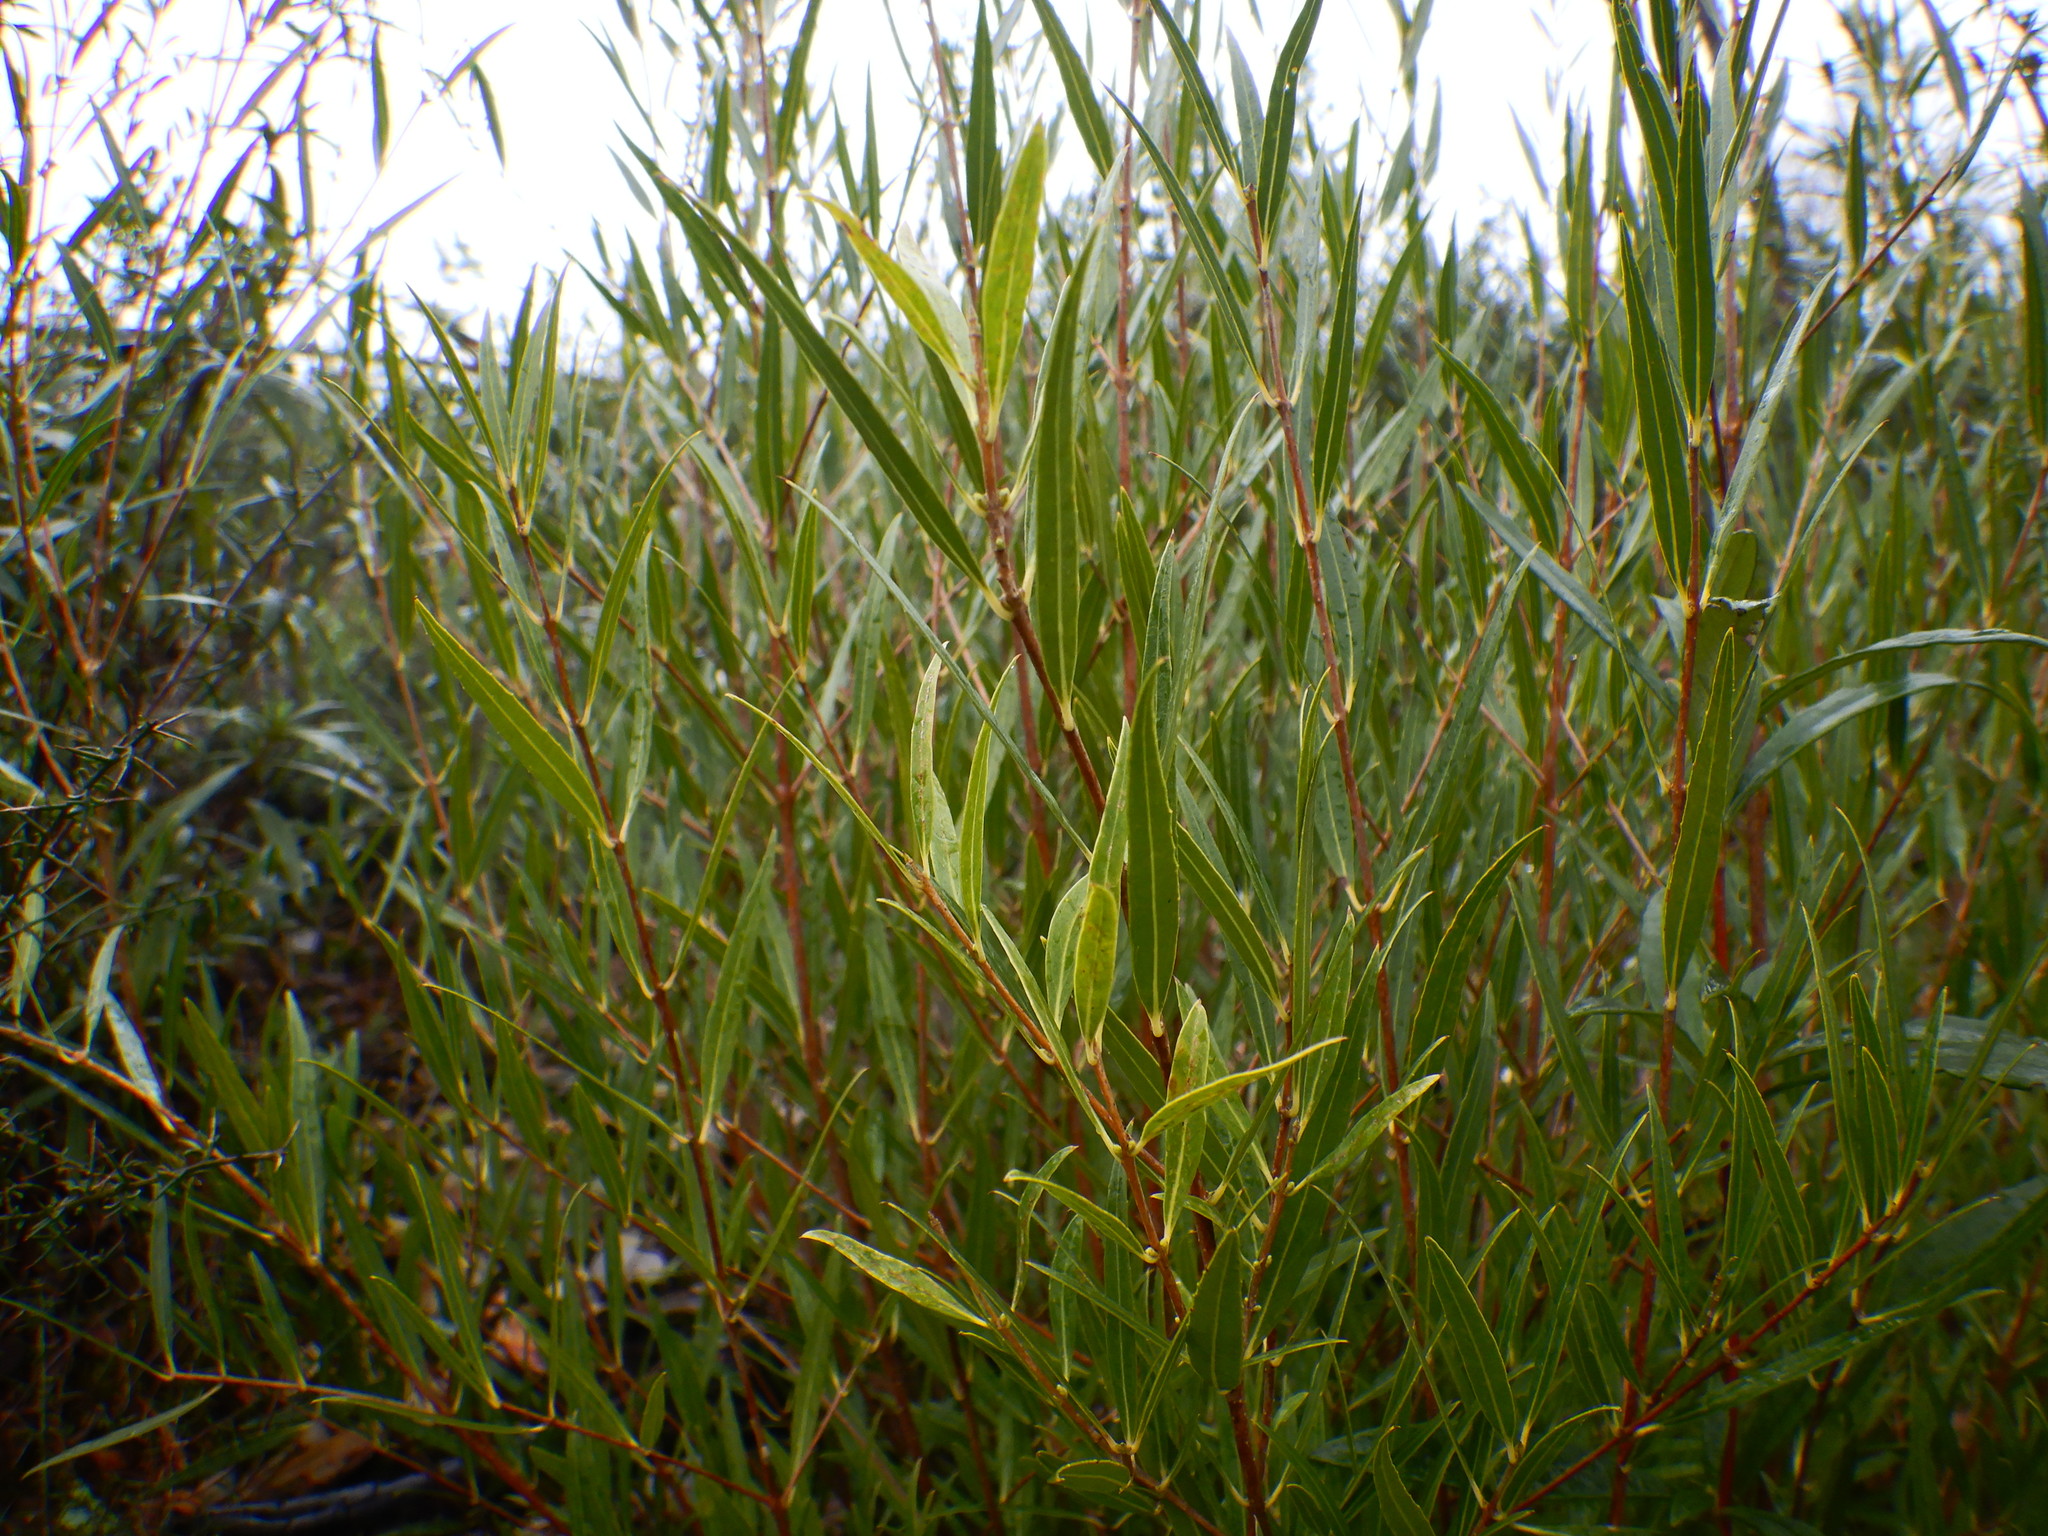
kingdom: Plantae
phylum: Tracheophyta
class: Magnoliopsida
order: Lamiales
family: Oleaceae
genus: Phillyrea
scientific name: Phillyrea angustifolia
